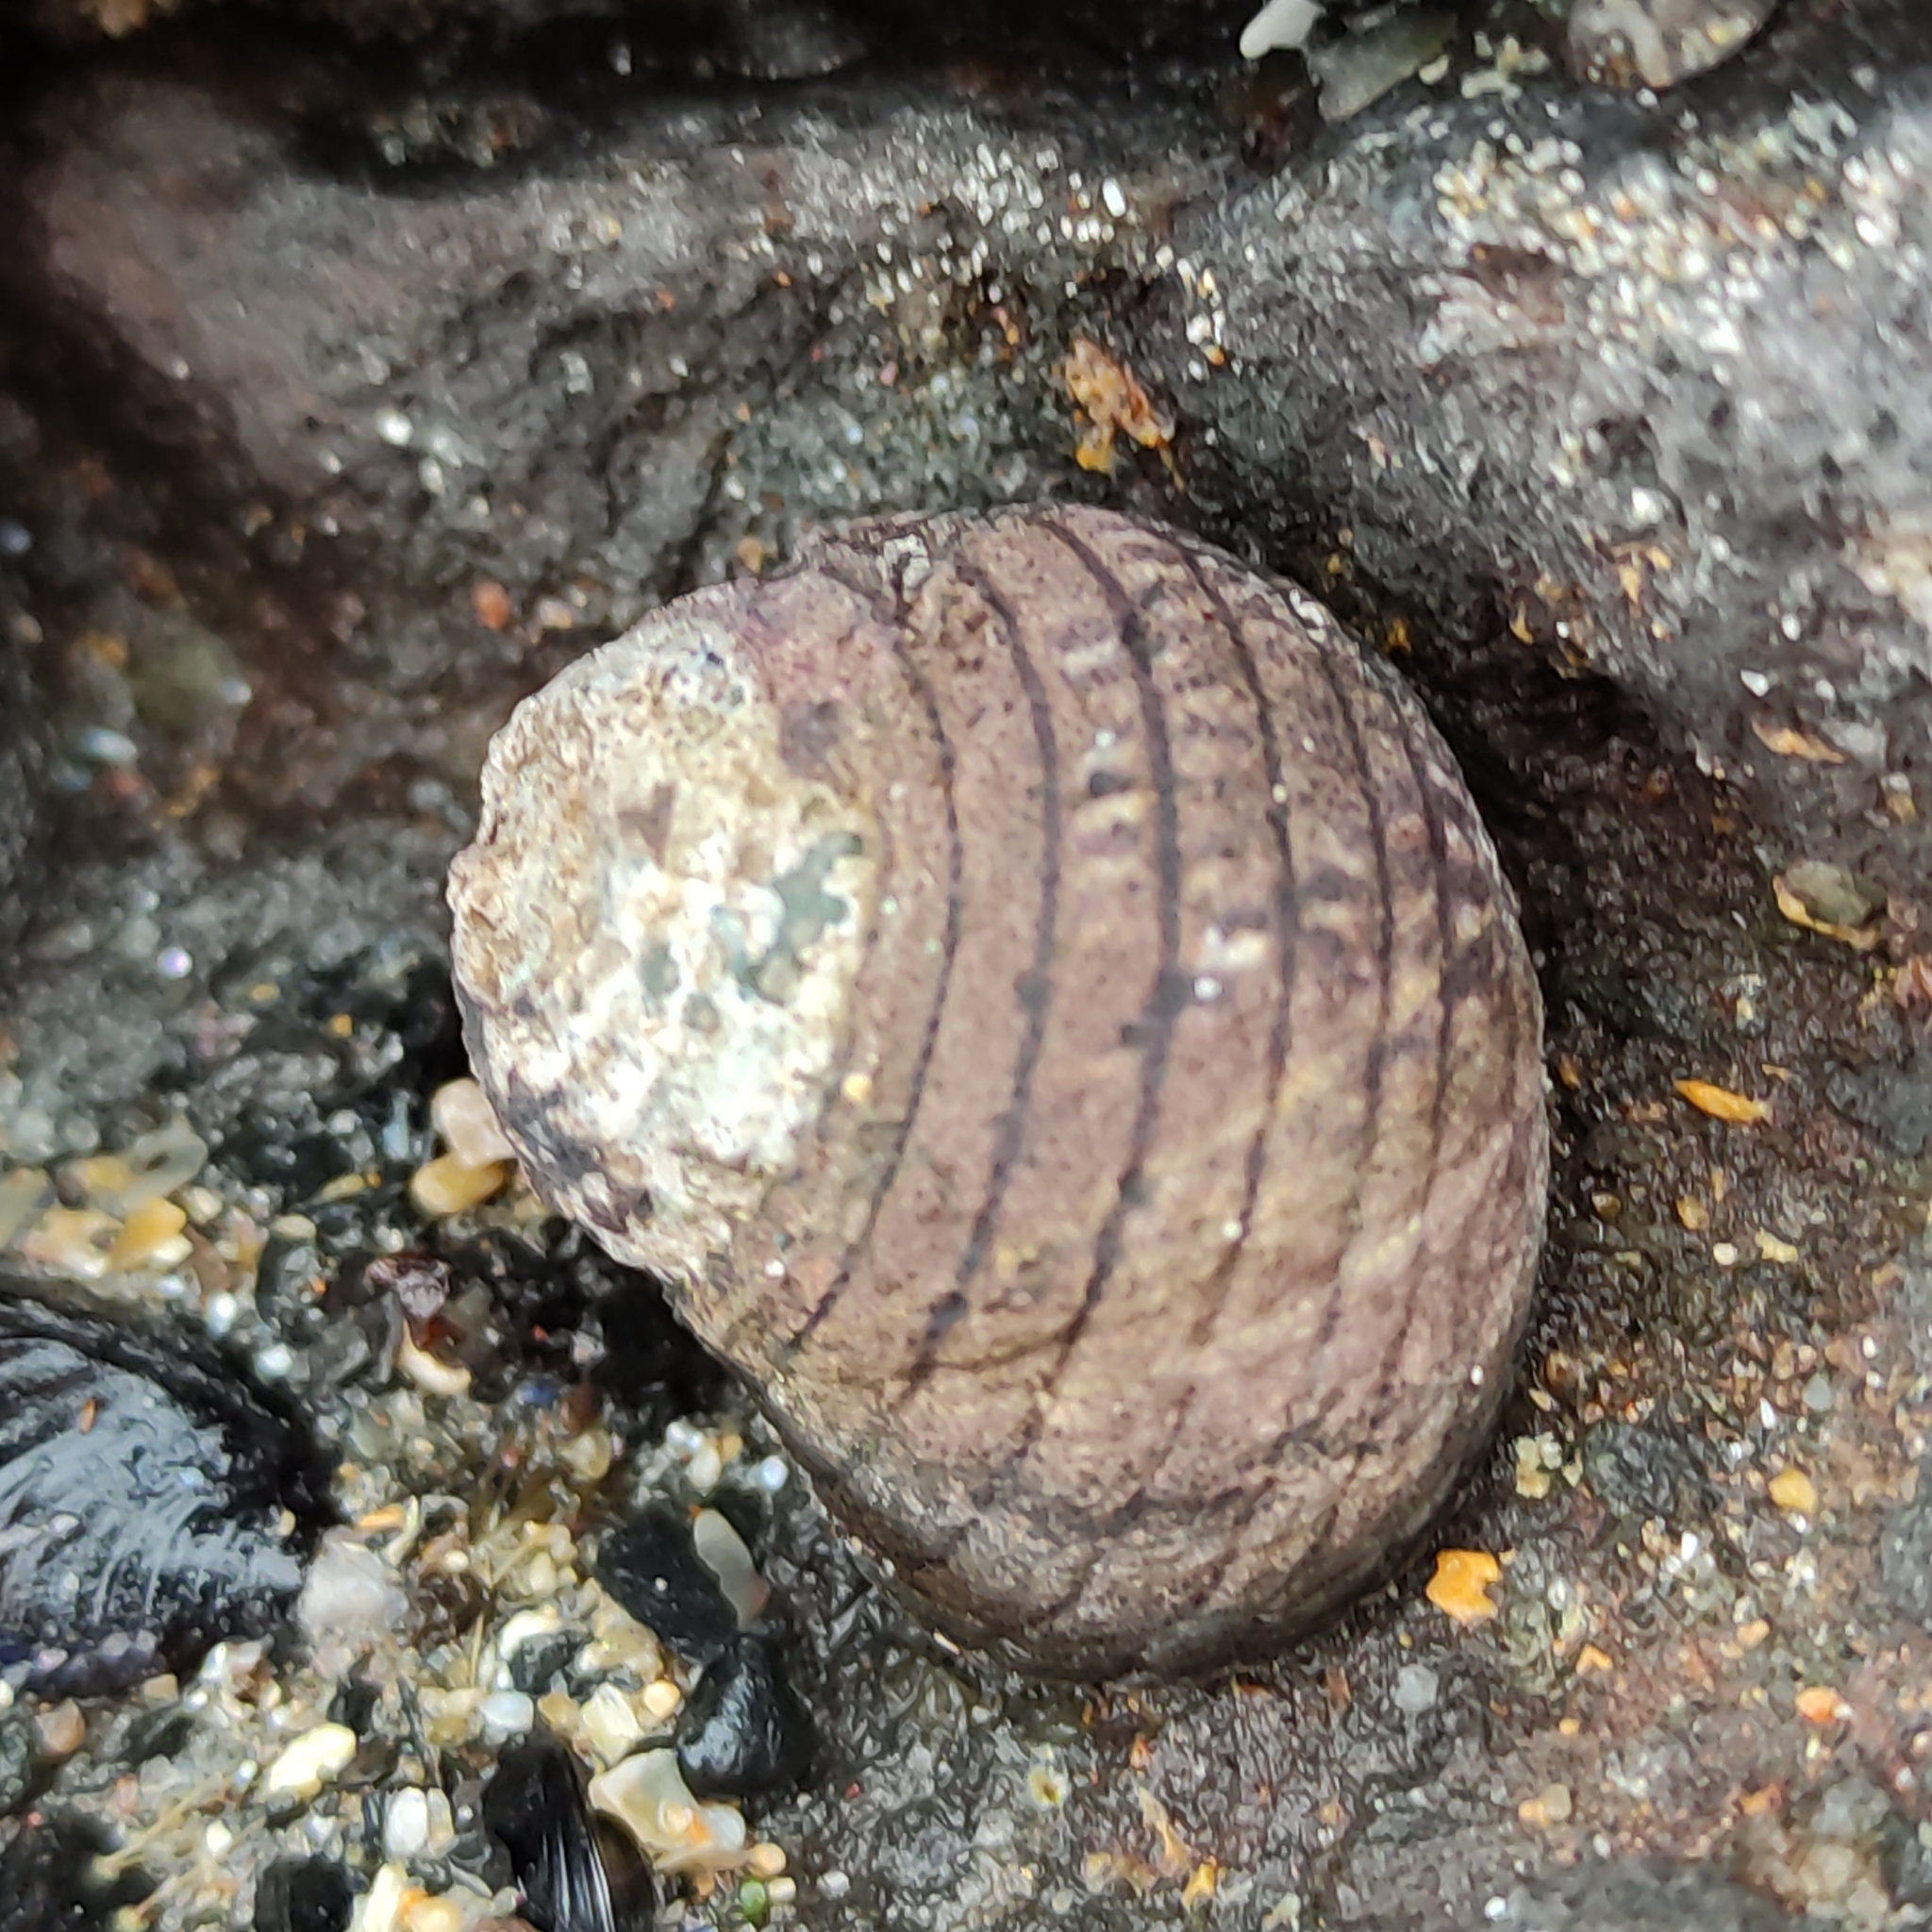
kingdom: Animalia
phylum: Mollusca
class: Gastropoda
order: Trochida
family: Trochidae
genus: Diloma
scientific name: Diloma aethiops
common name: Scorched monodont
